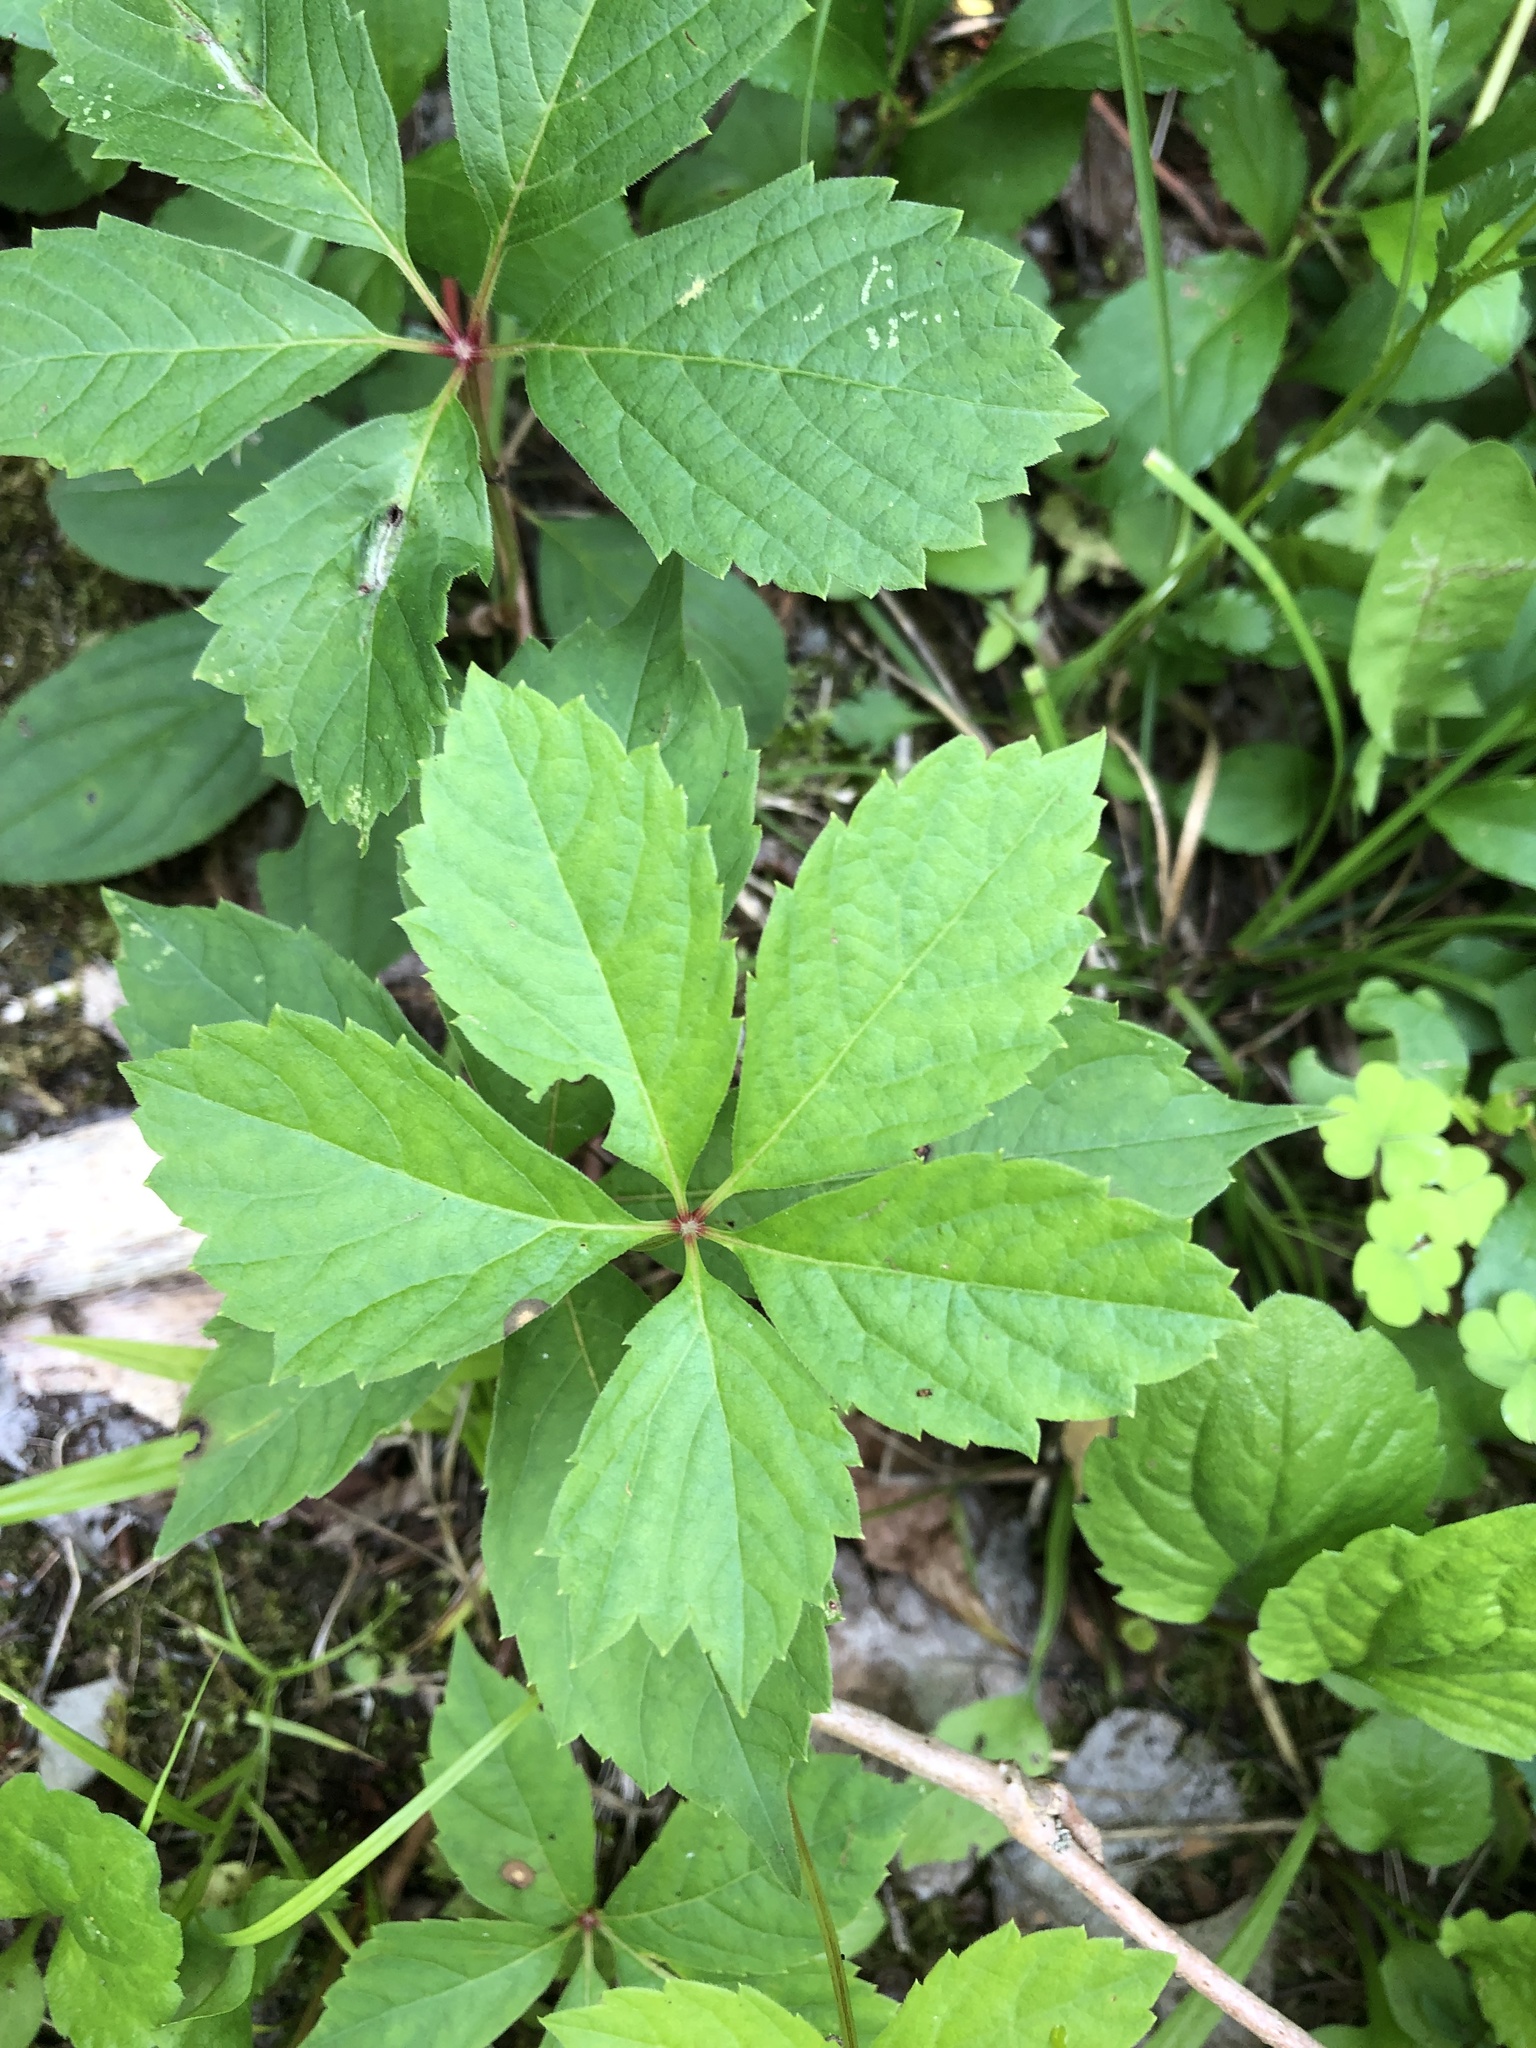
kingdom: Plantae
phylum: Tracheophyta
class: Magnoliopsida
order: Vitales
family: Vitaceae
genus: Parthenocissus
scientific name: Parthenocissus quinquefolia
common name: Virginia-creeper
